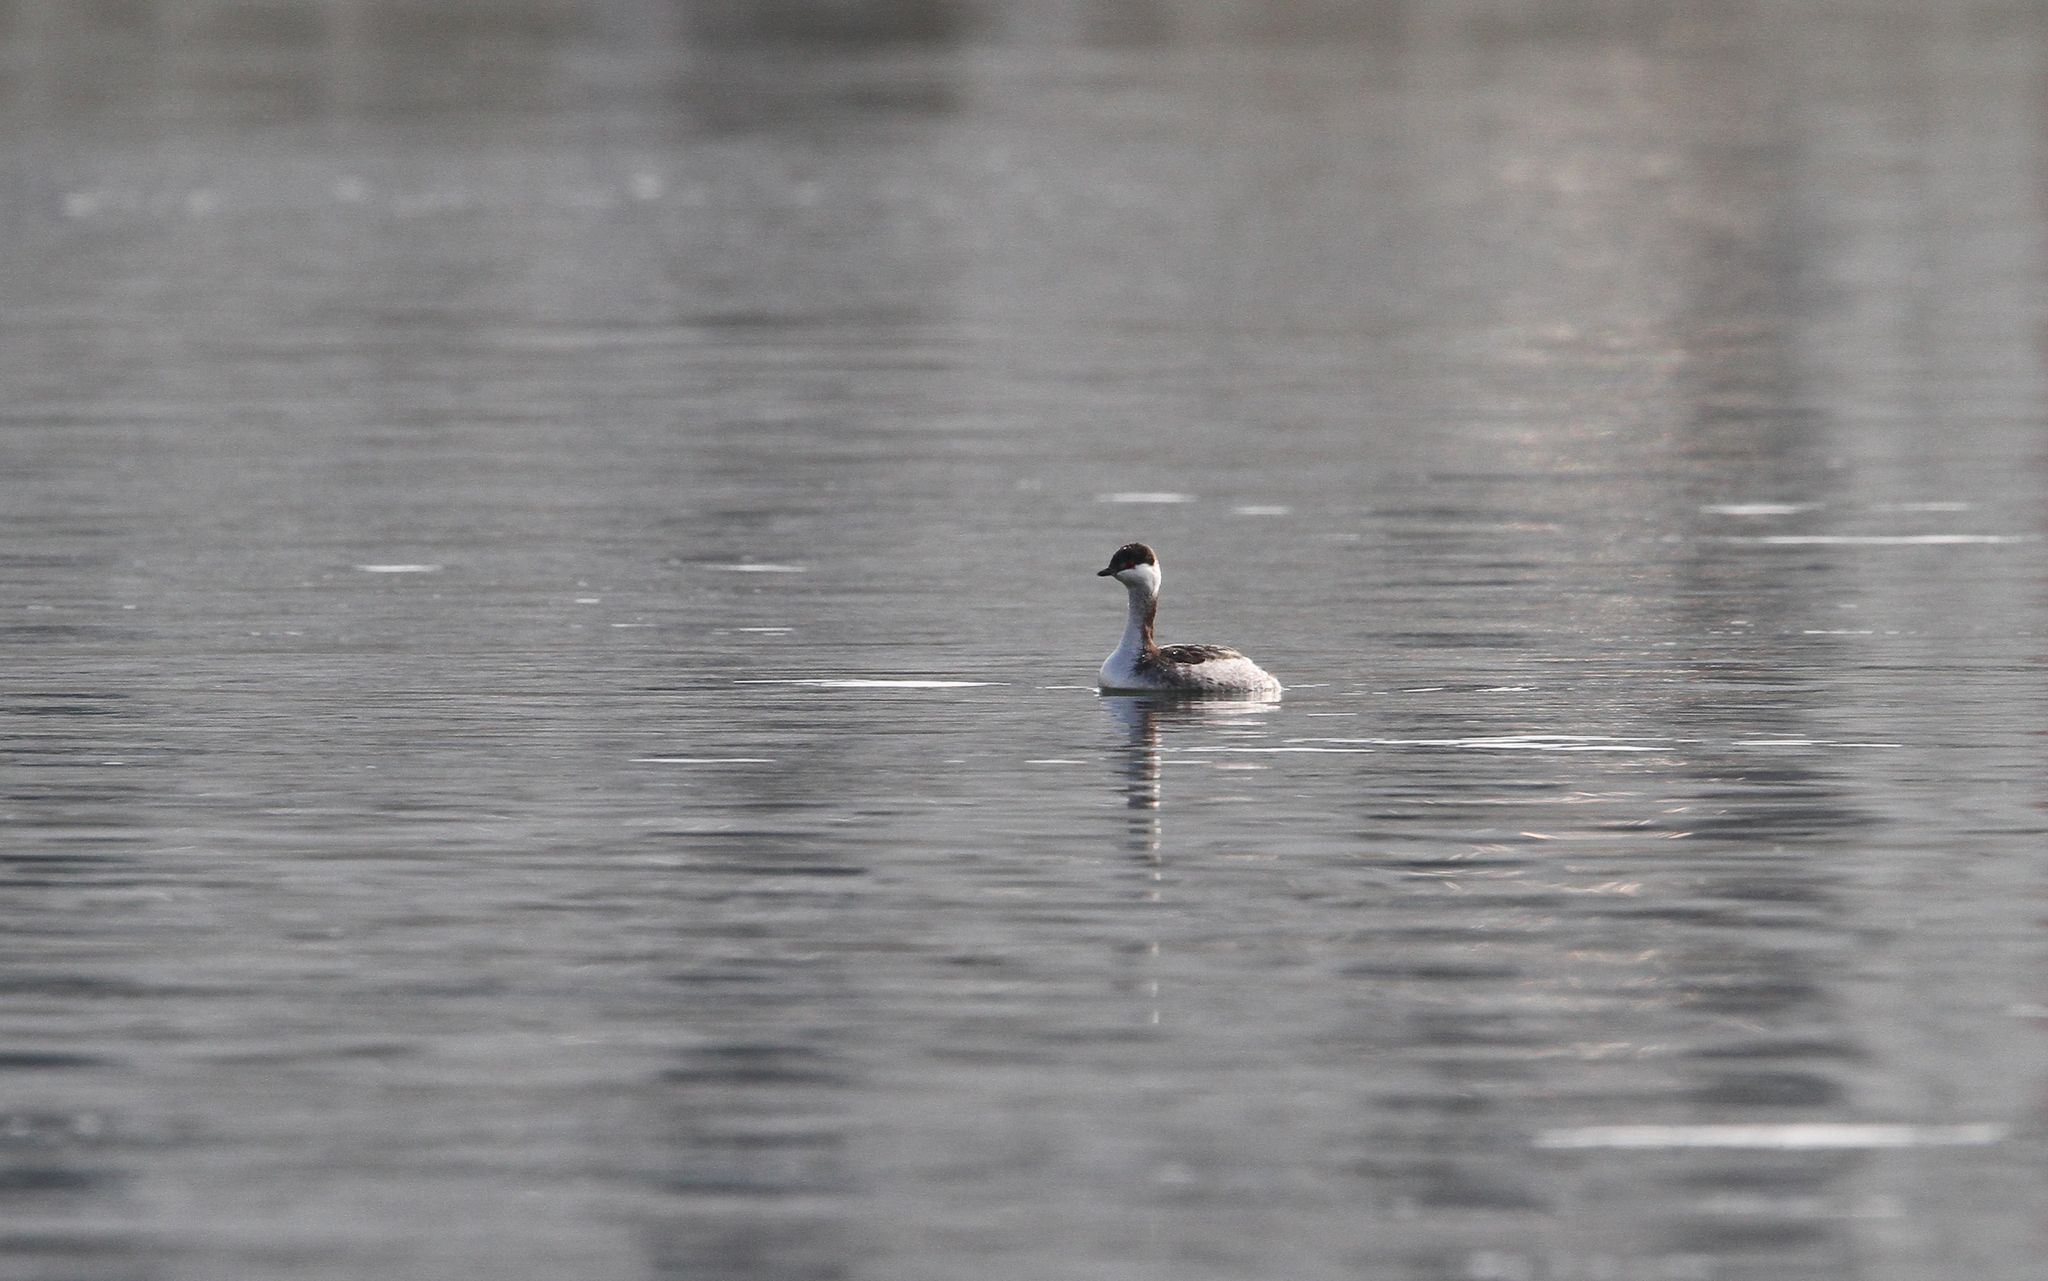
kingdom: Animalia
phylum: Chordata
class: Aves
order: Podicipediformes
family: Podicipedidae
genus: Podiceps
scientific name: Podiceps auritus
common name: Horned grebe
